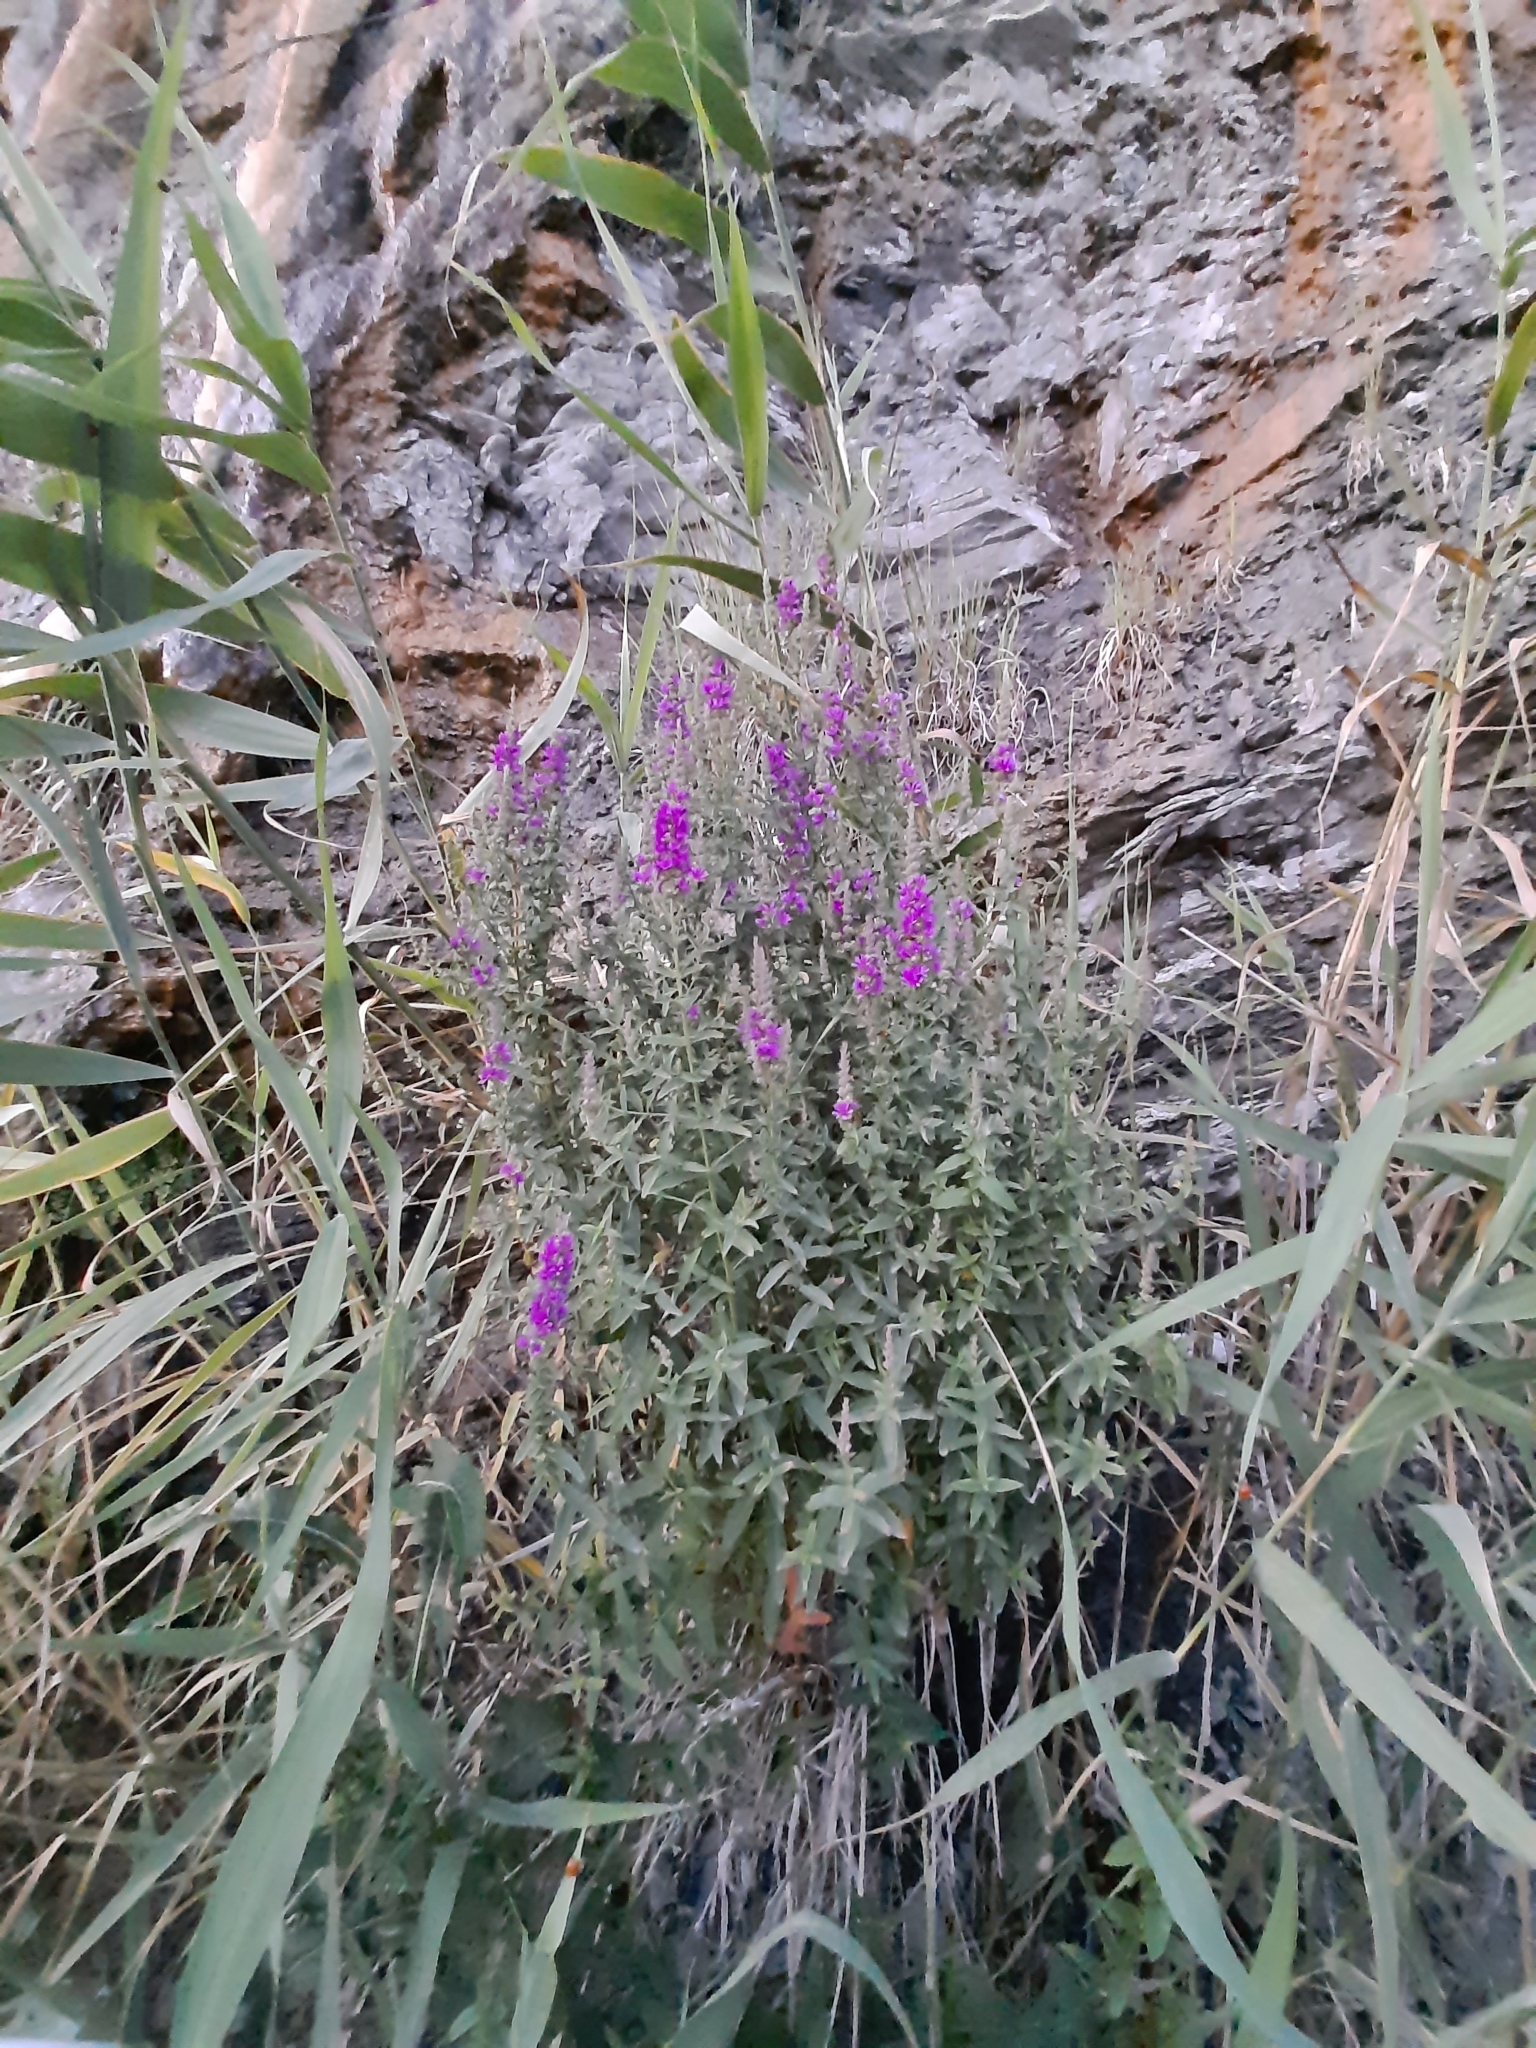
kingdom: Plantae
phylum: Tracheophyta
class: Magnoliopsida
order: Myrtales
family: Lythraceae
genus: Lythrum
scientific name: Lythrum salicaria
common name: Purple loosestrife
